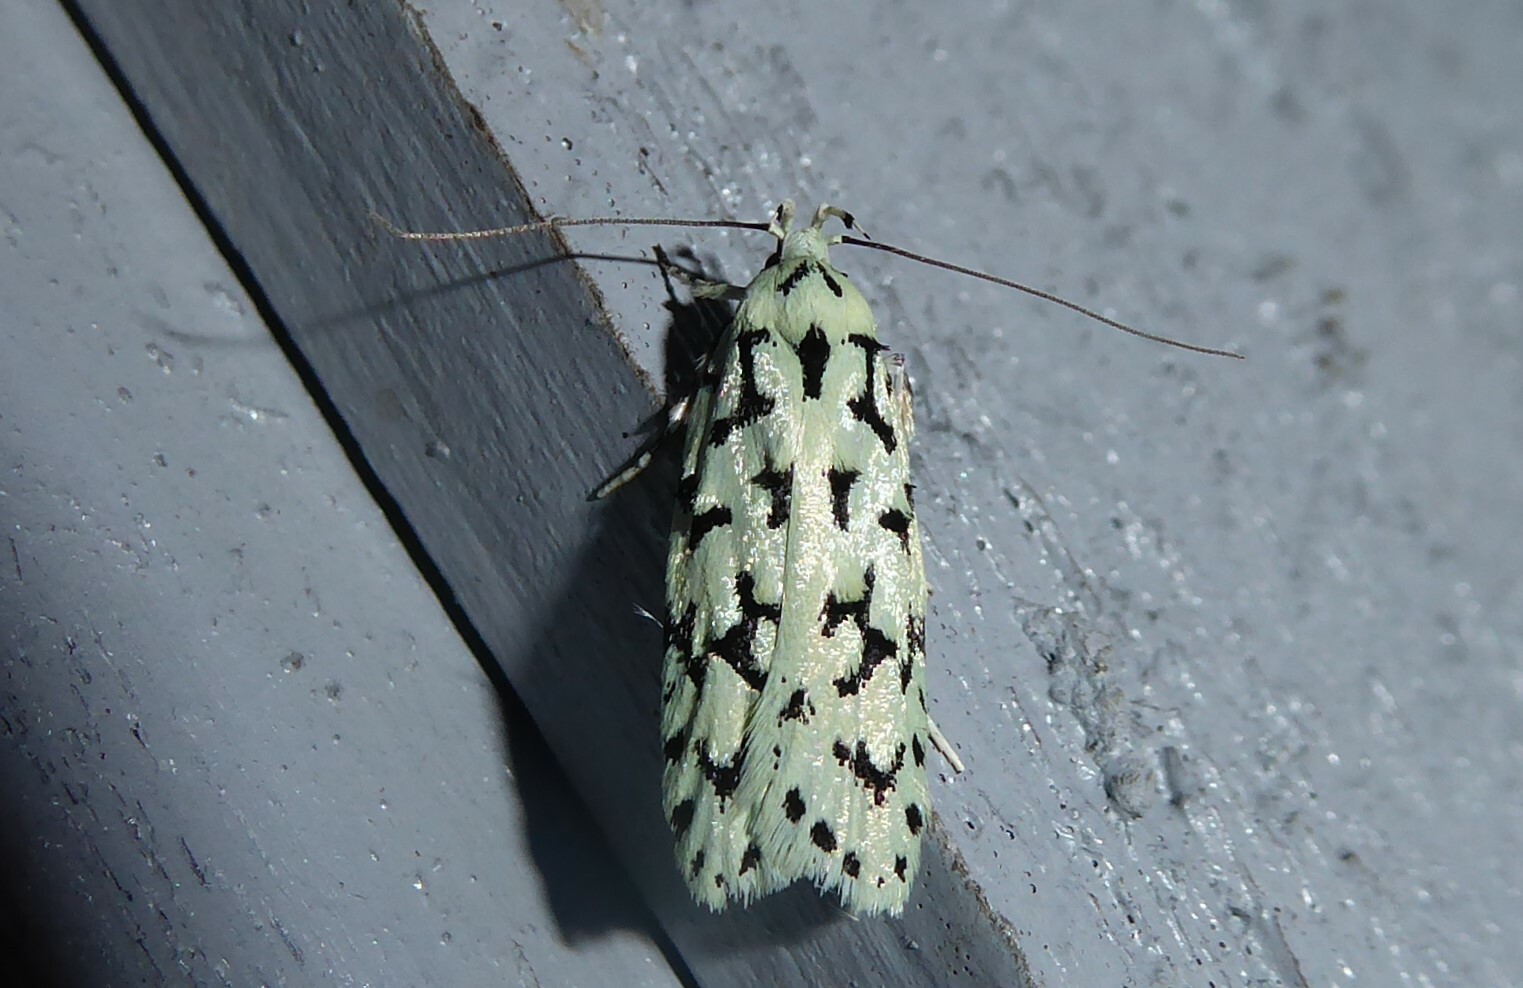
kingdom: Animalia
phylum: Arthropoda
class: Insecta
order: Lepidoptera
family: Oecophoridae
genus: Izatha
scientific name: Izatha huttoni
